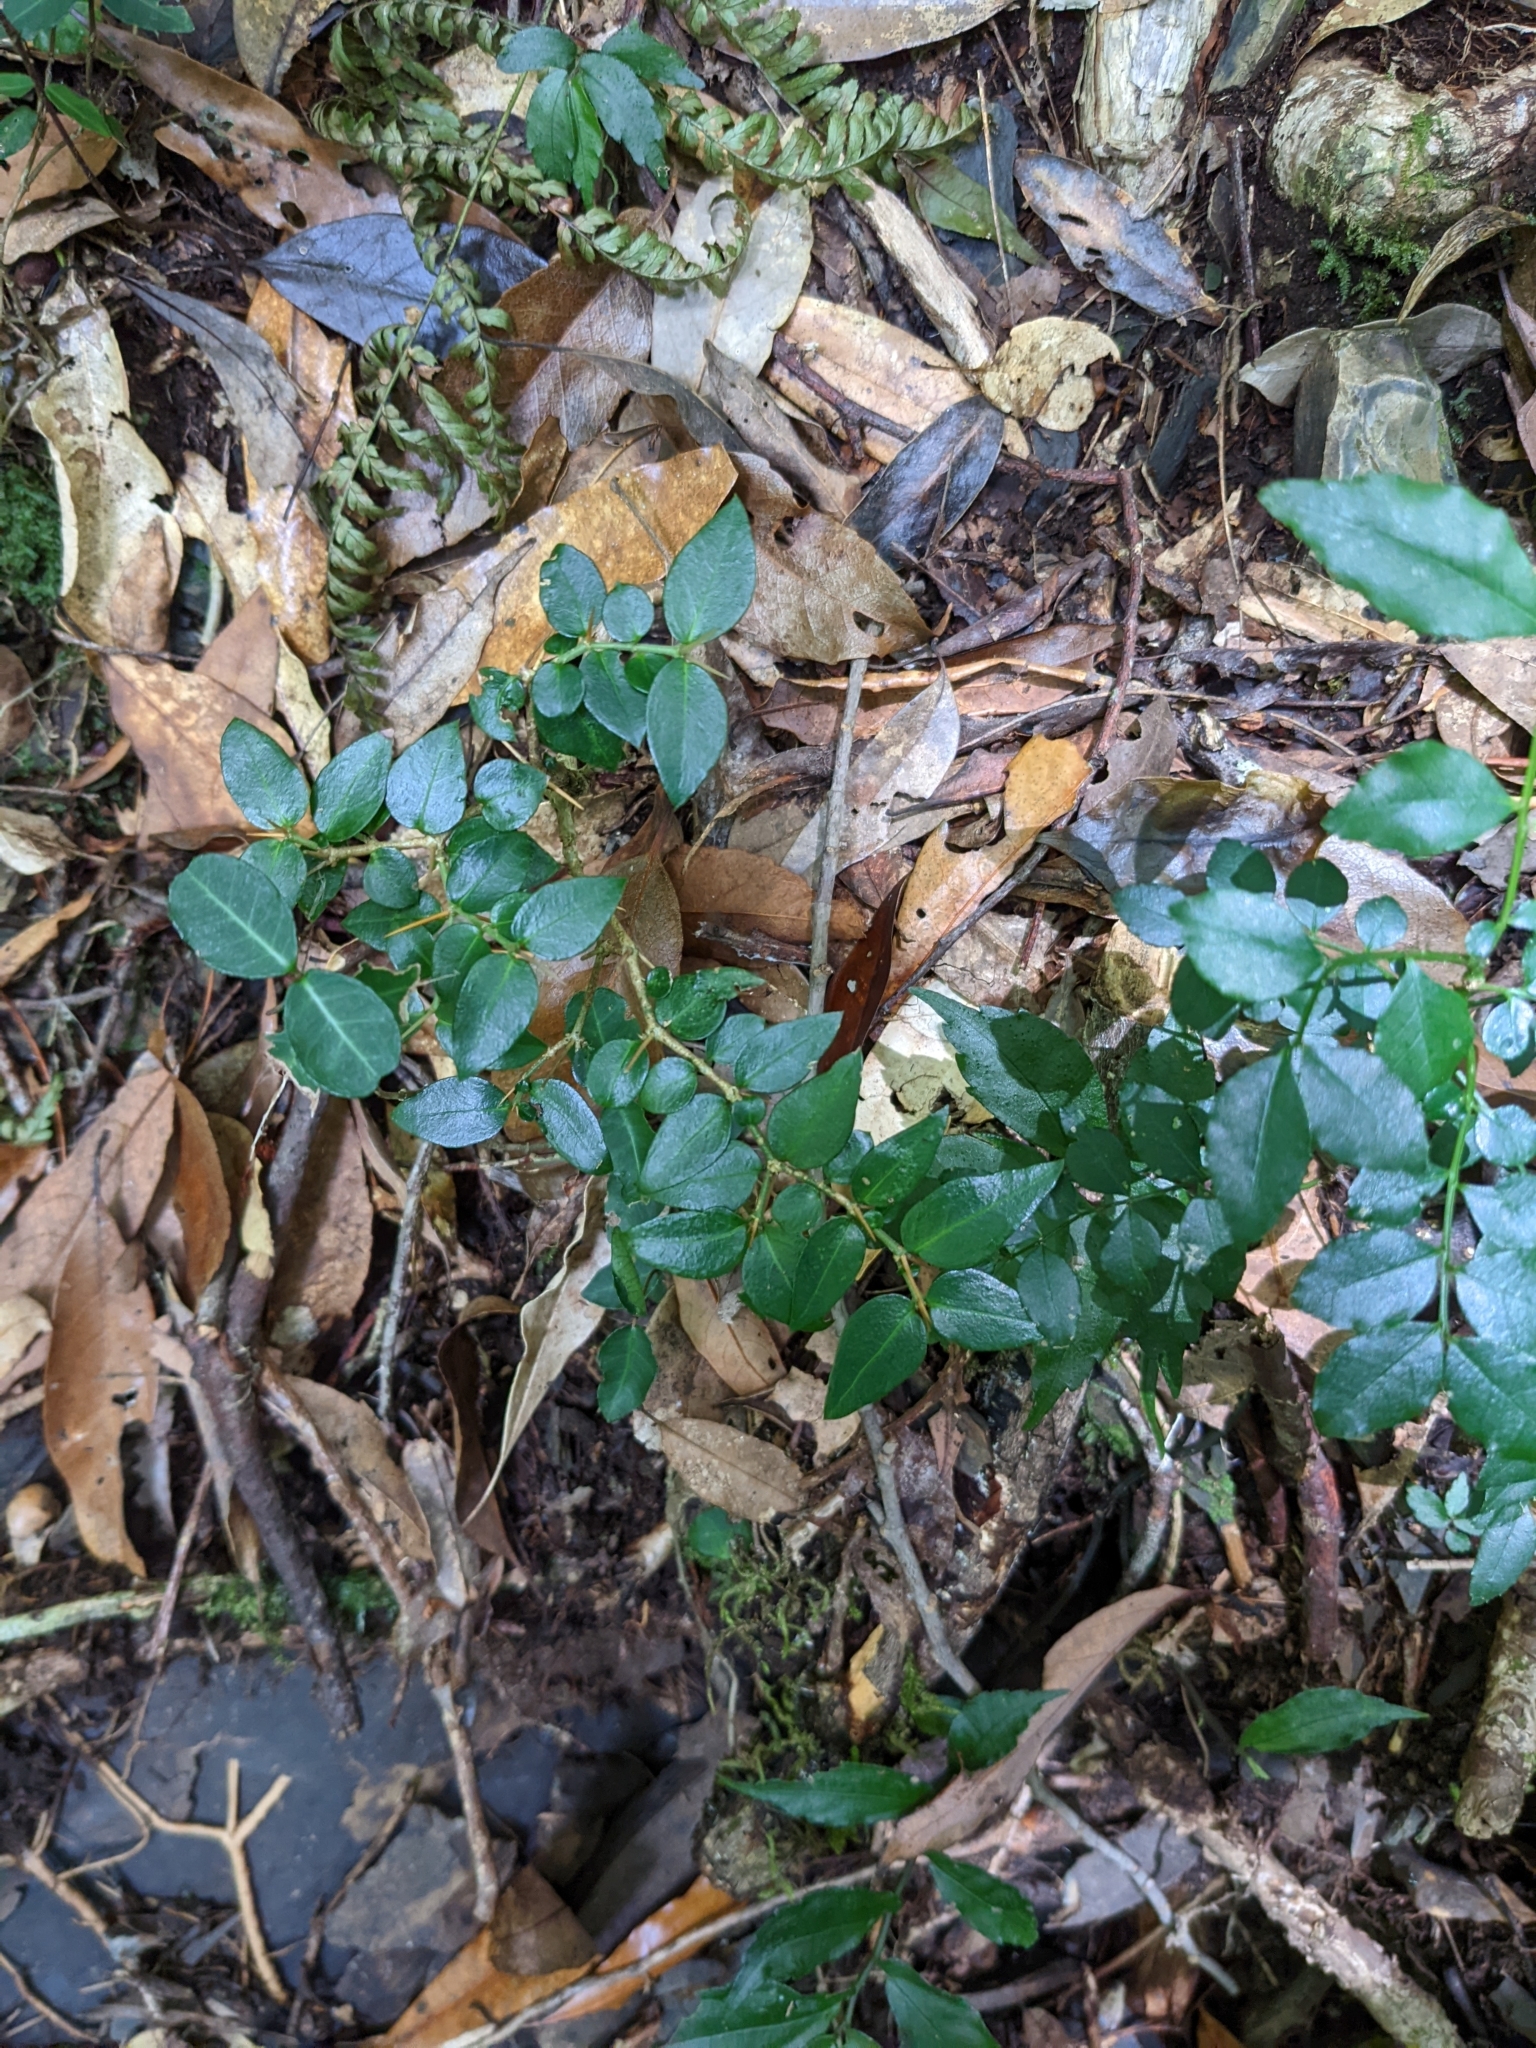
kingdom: Plantae
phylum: Tracheophyta
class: Magnoliopsida
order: Gentianales
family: Rubiaceae
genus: Damnacanthus
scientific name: Damnacanthus indicus
